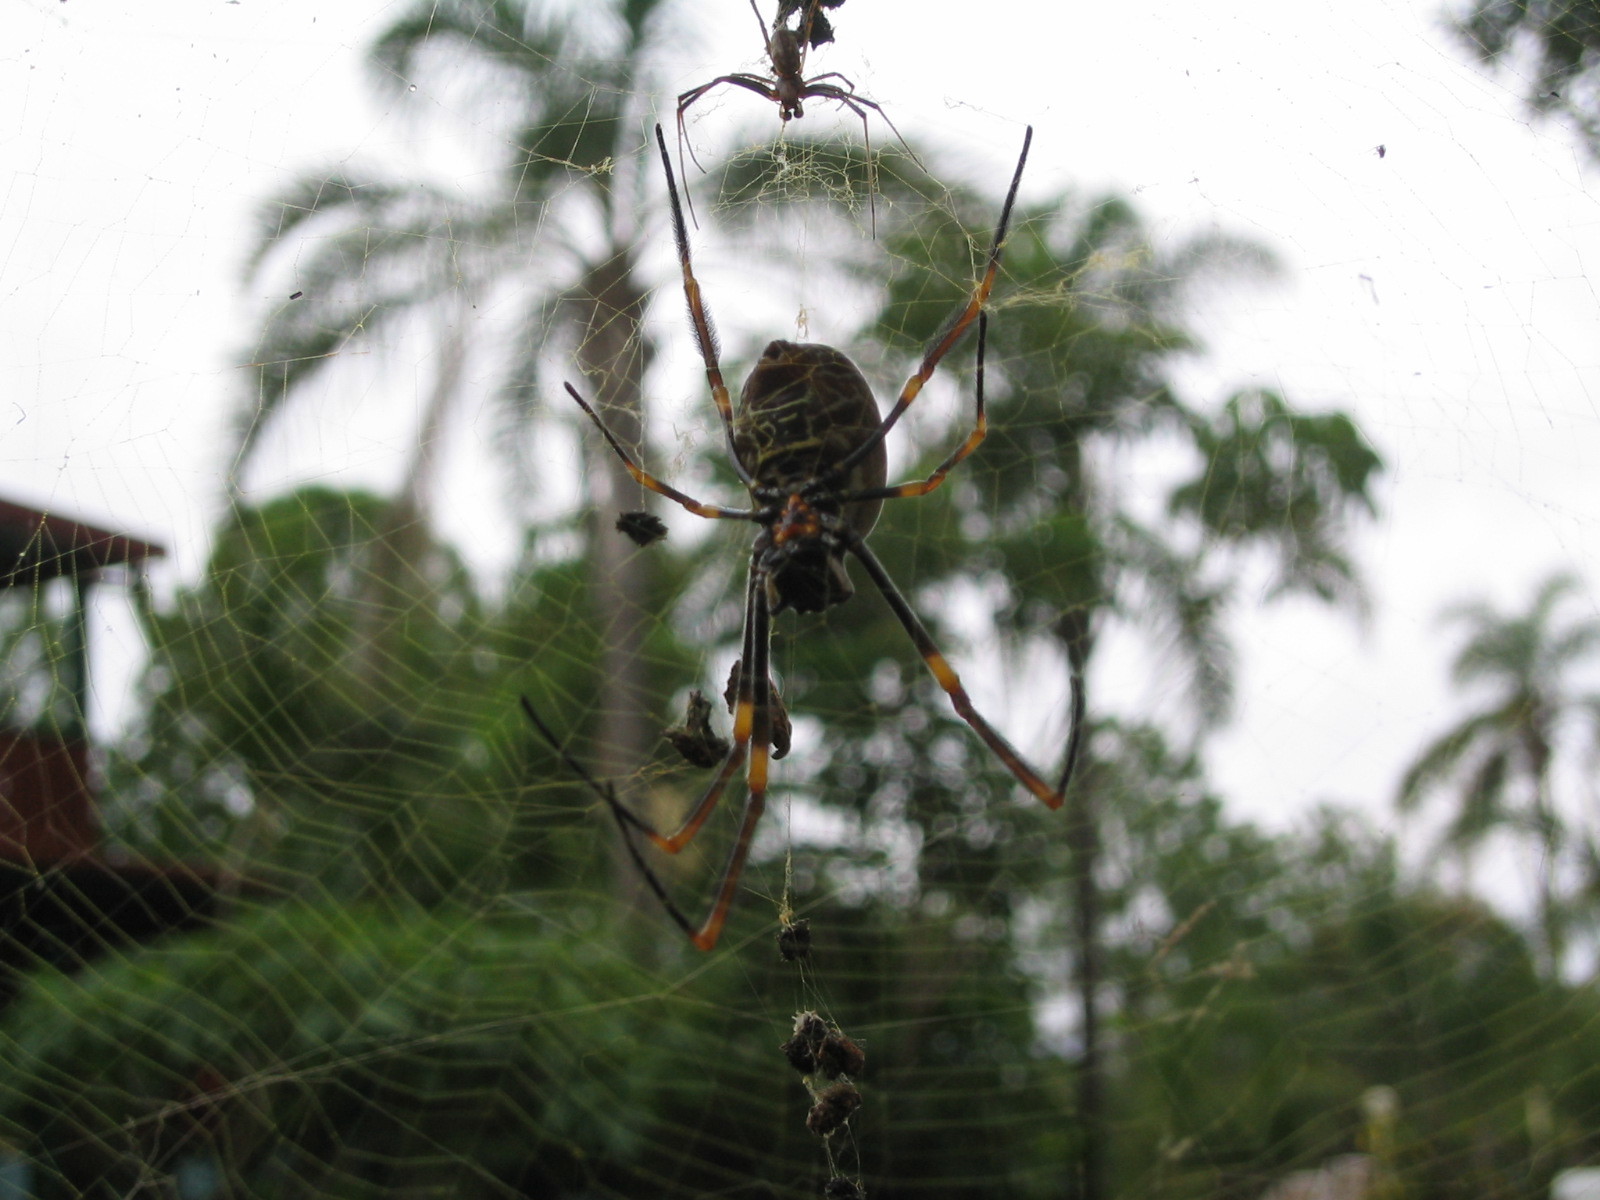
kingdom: Animalia
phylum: Arthropoda
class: Arachnida
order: Araneae
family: Araneidae
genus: Trichonephila
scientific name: Trichonephila plumipes
